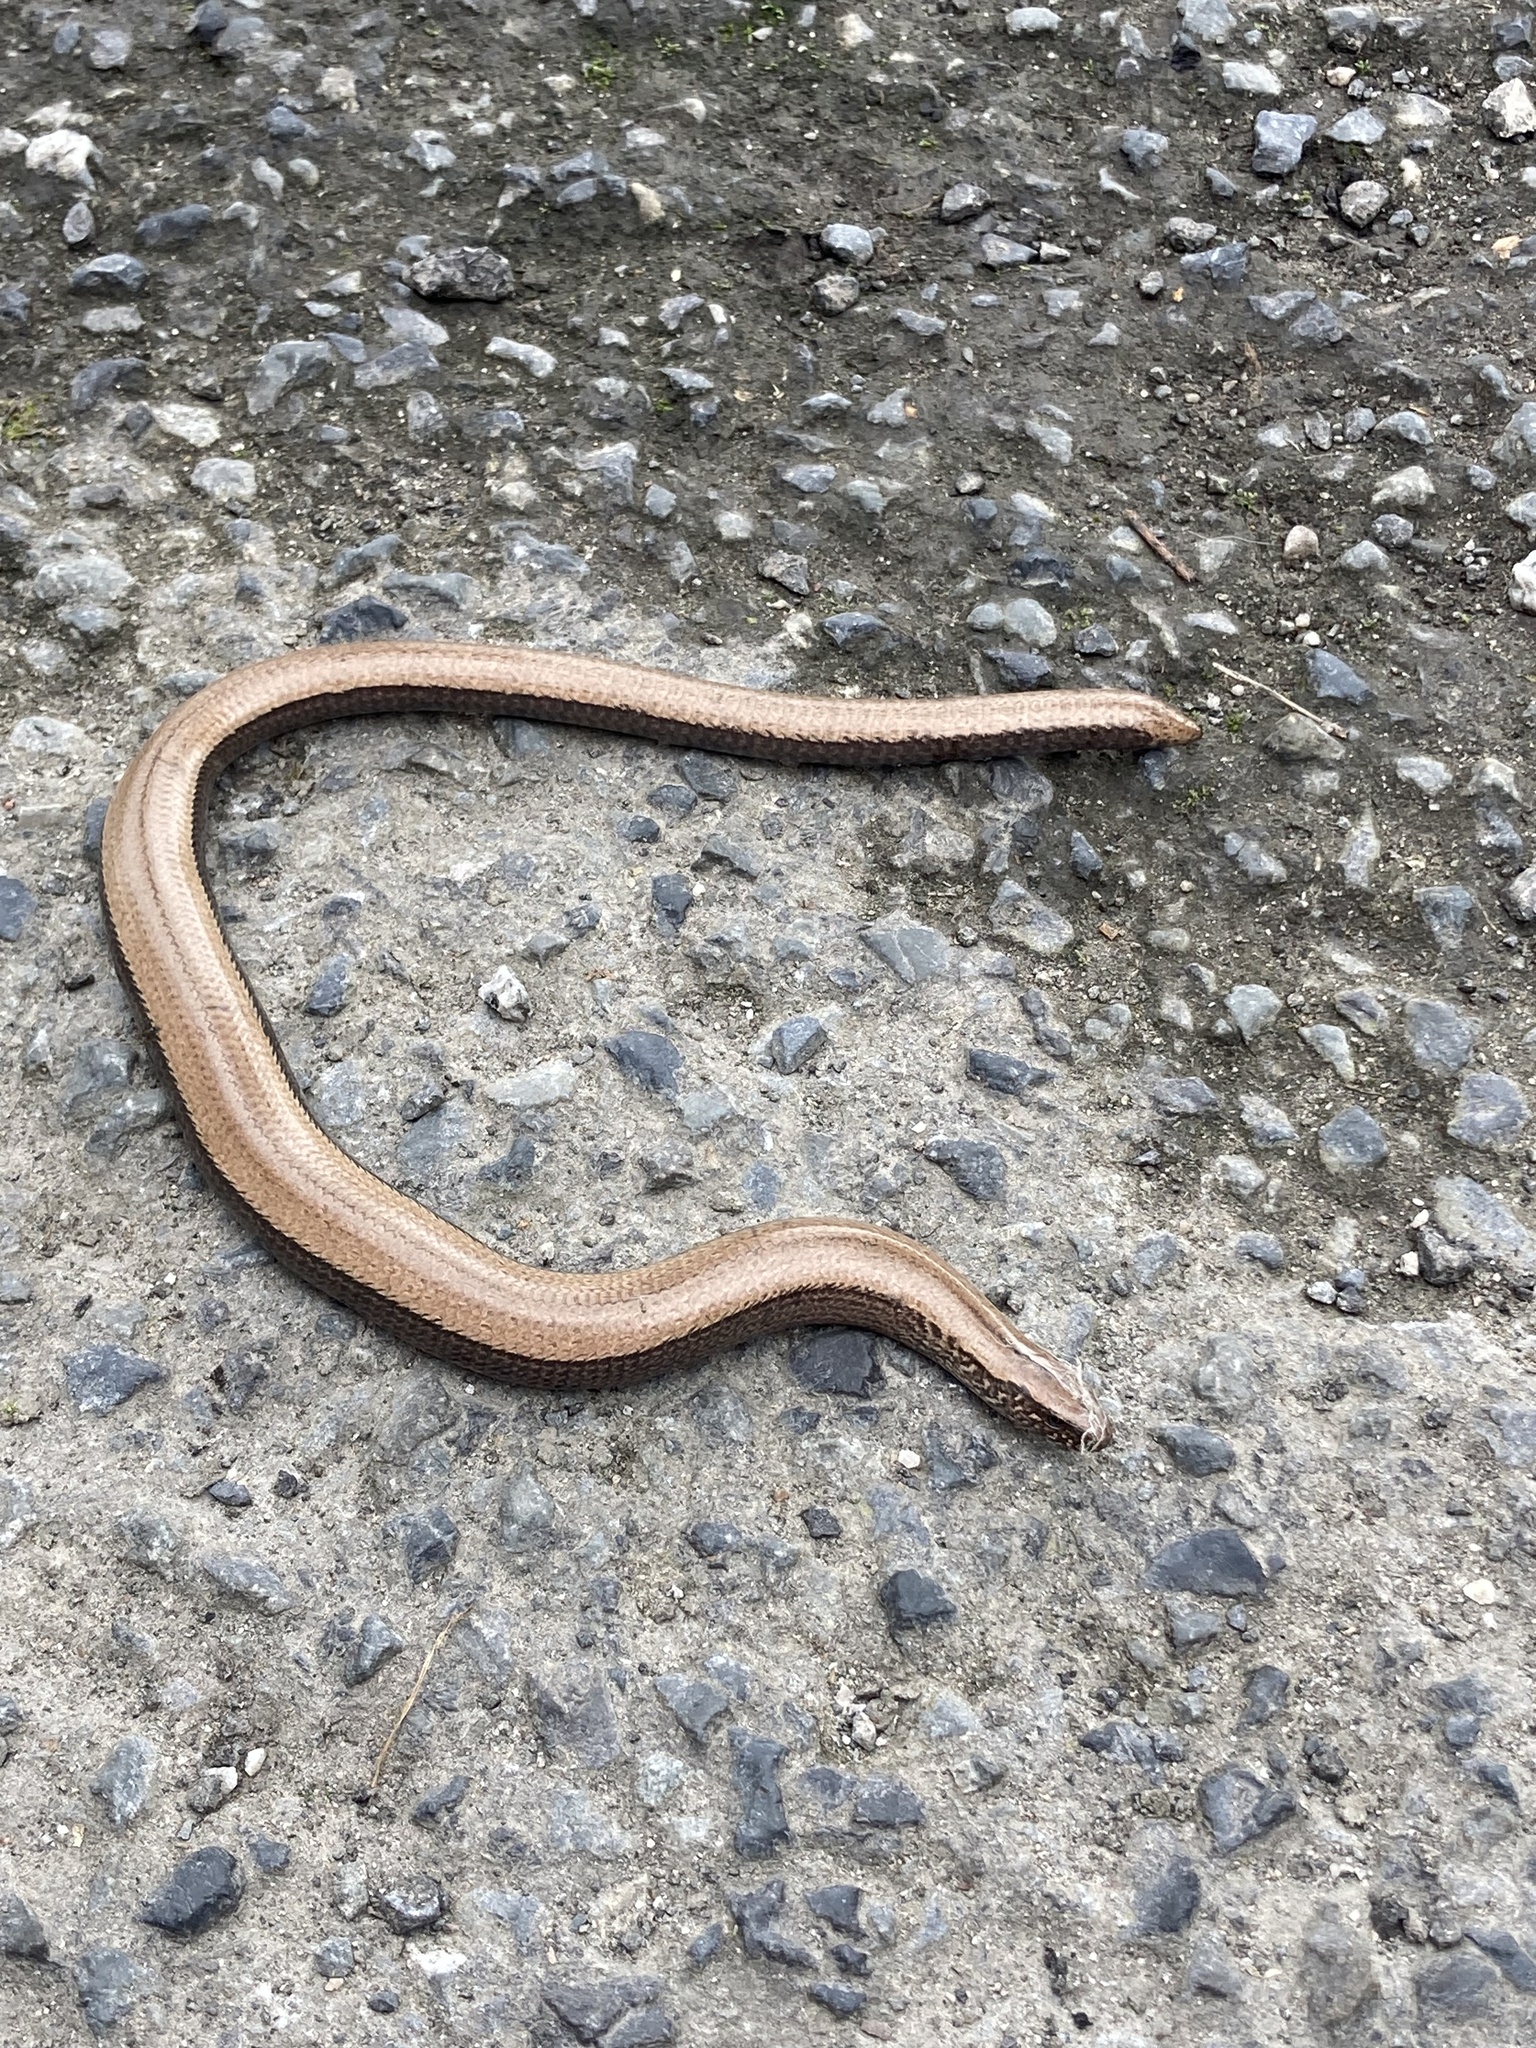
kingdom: Animalia
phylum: Chordata
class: Squamata
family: Anguidae
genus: Anguis
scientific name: Anguis fragilis
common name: Slow worm
